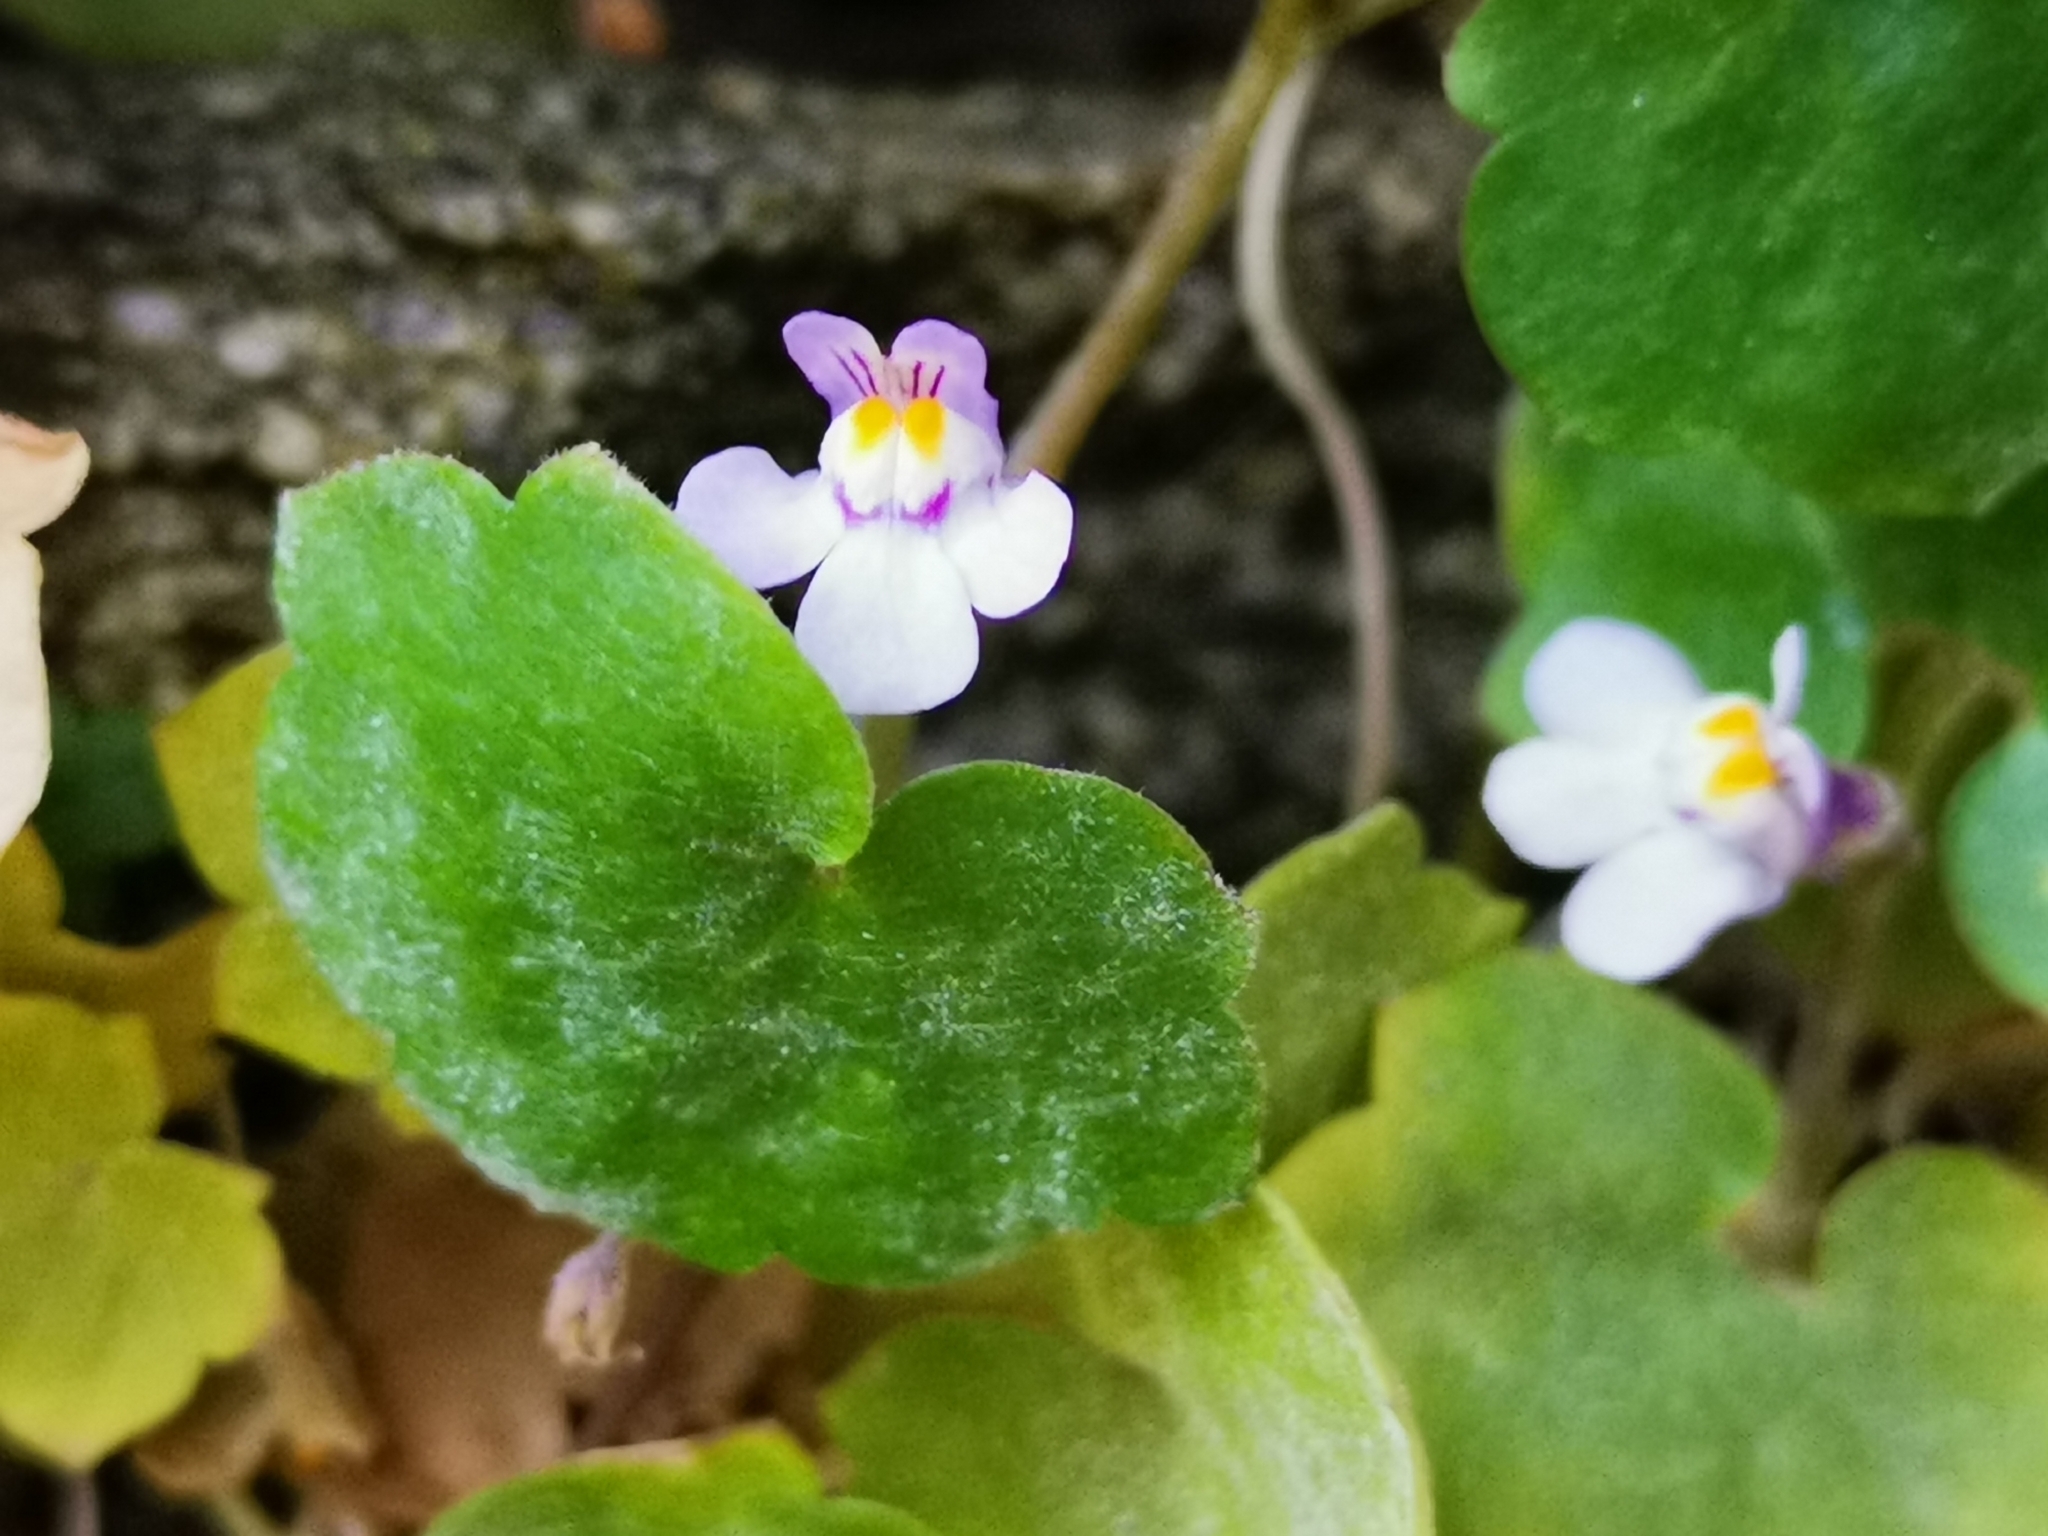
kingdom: Plantae
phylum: Tracheophyta
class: Magnoliopsida
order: Lamiales
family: Plantaginaceae
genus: Cymbalaria
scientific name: Cymbalaria muralis
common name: Ivy-leaved toadflax
